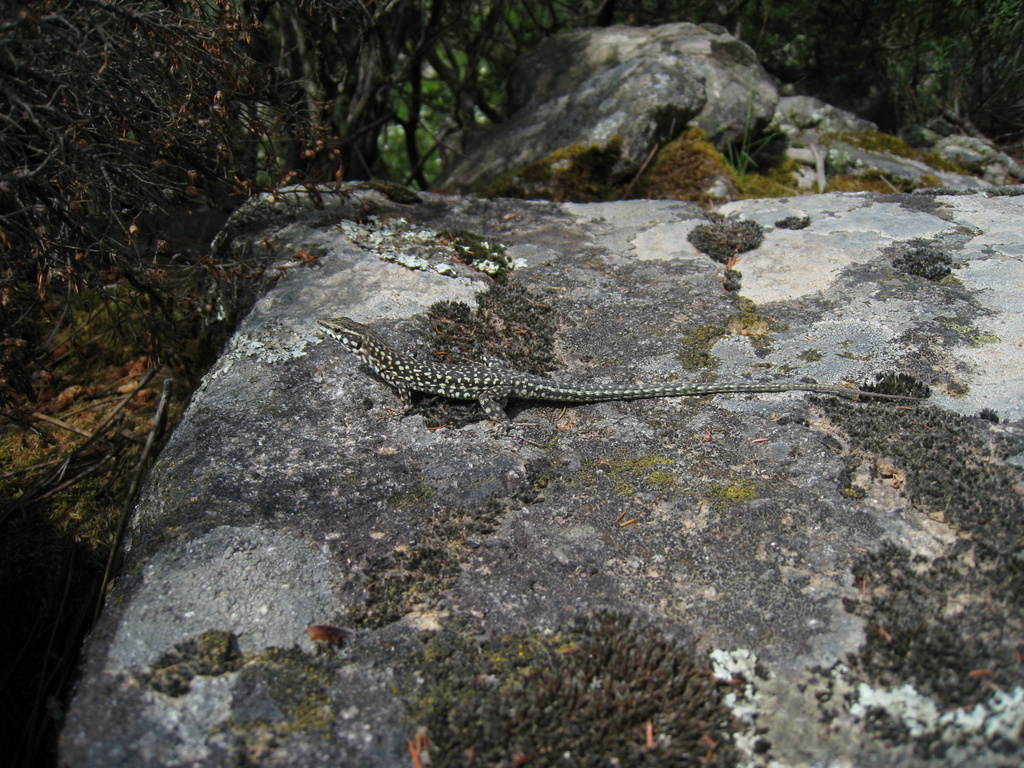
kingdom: Animalia
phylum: Chordata
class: Squamata
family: Lacertidae
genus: Podarcis
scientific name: Podarcis tiliguerta
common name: Tyrrhenian wall lizard
